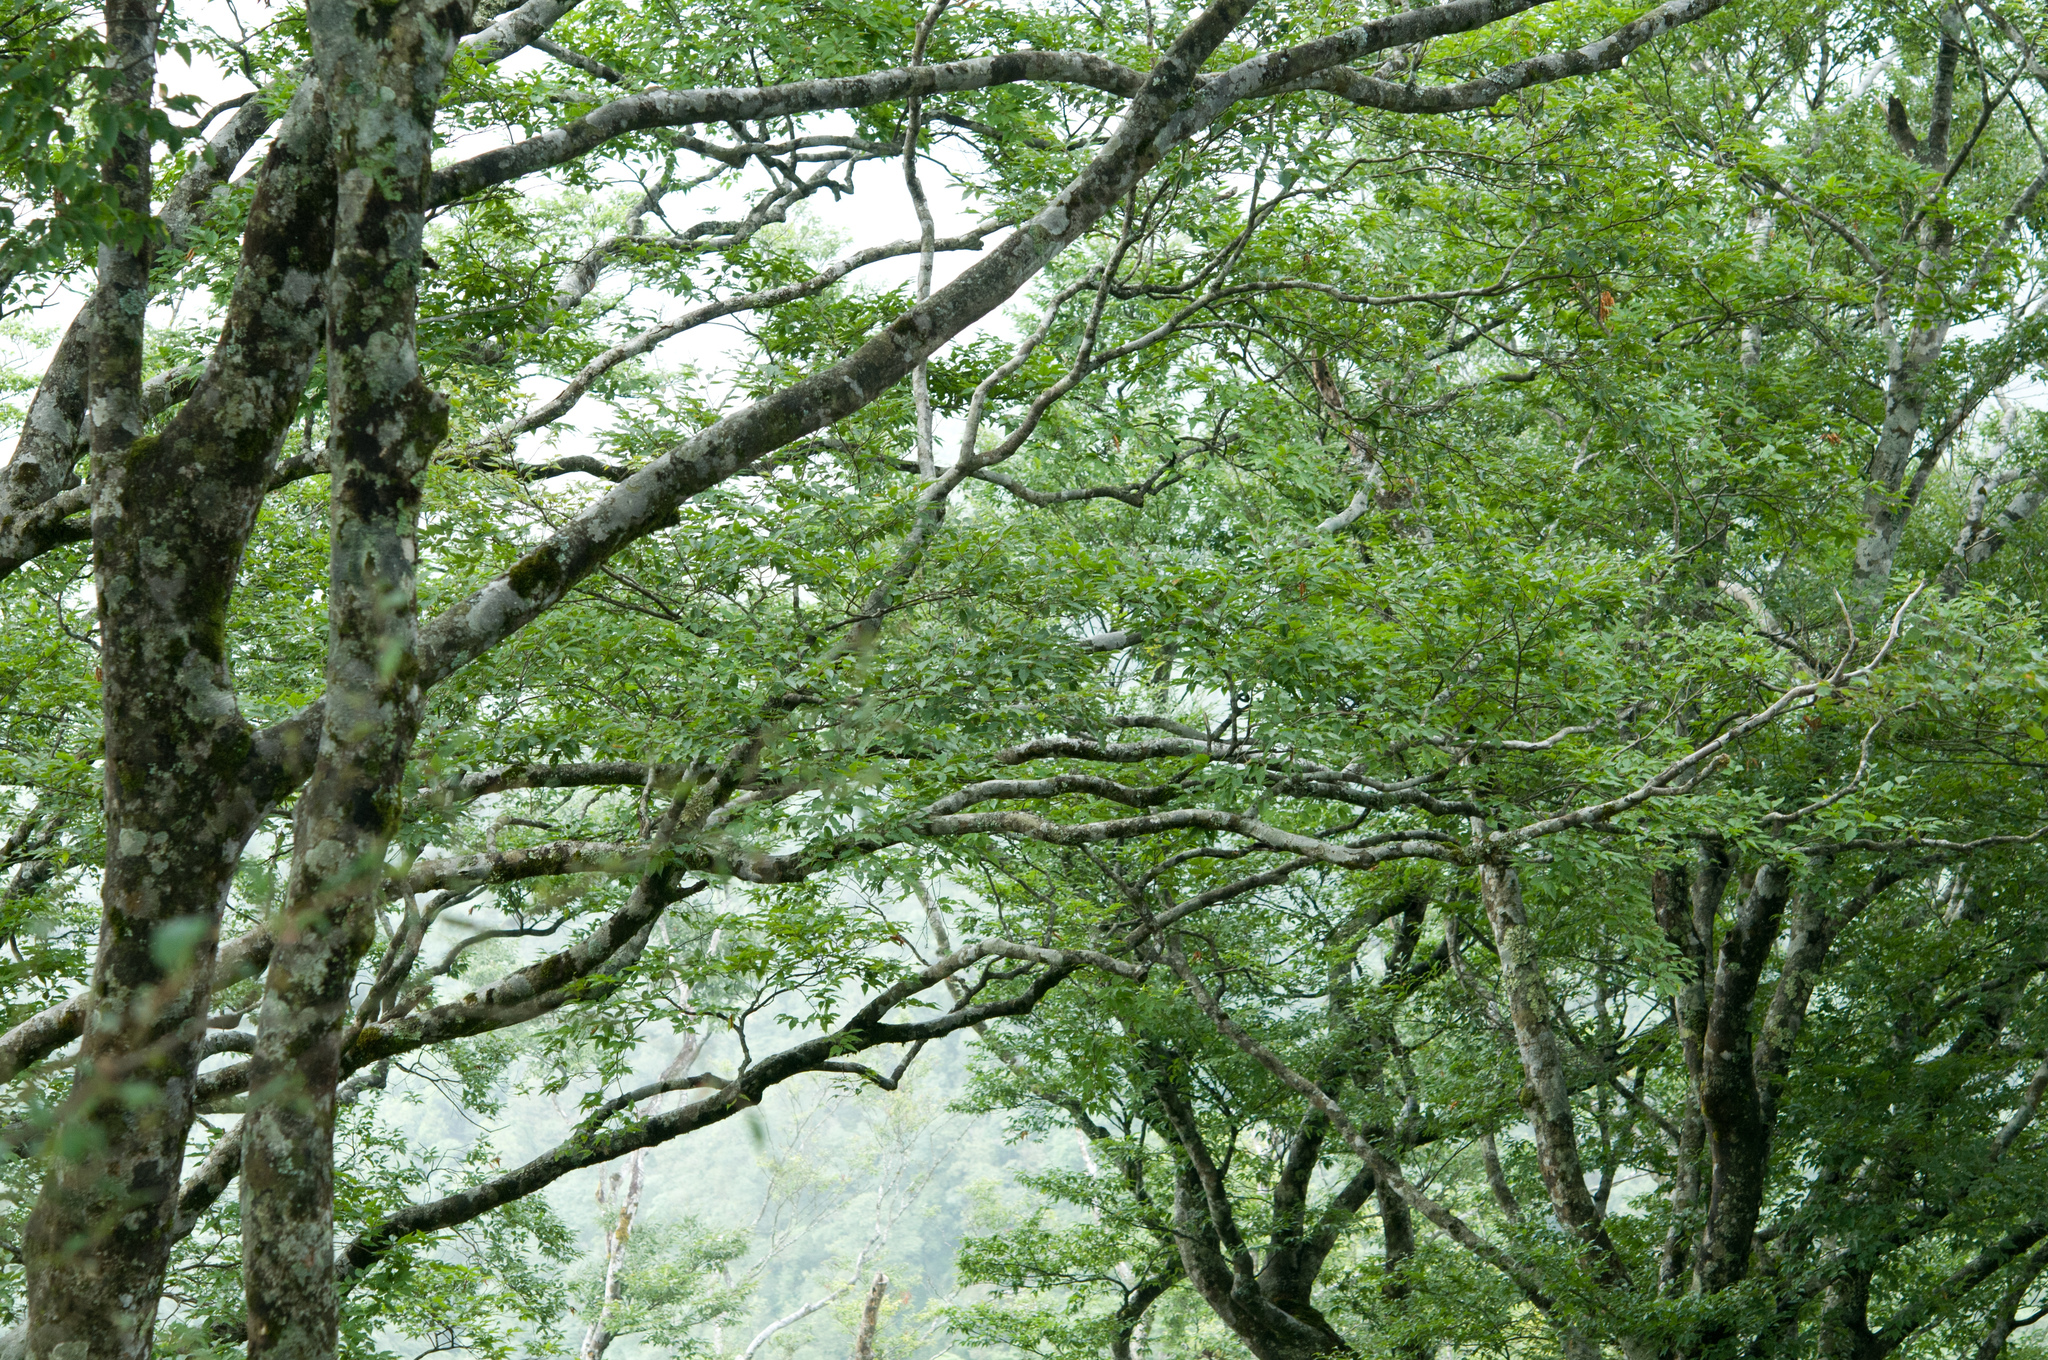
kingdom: Plantae
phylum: Tracheophyta
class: Magnoliopsida
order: Fagales
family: Fagaceae
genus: Fagus
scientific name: Fagus hayatae
